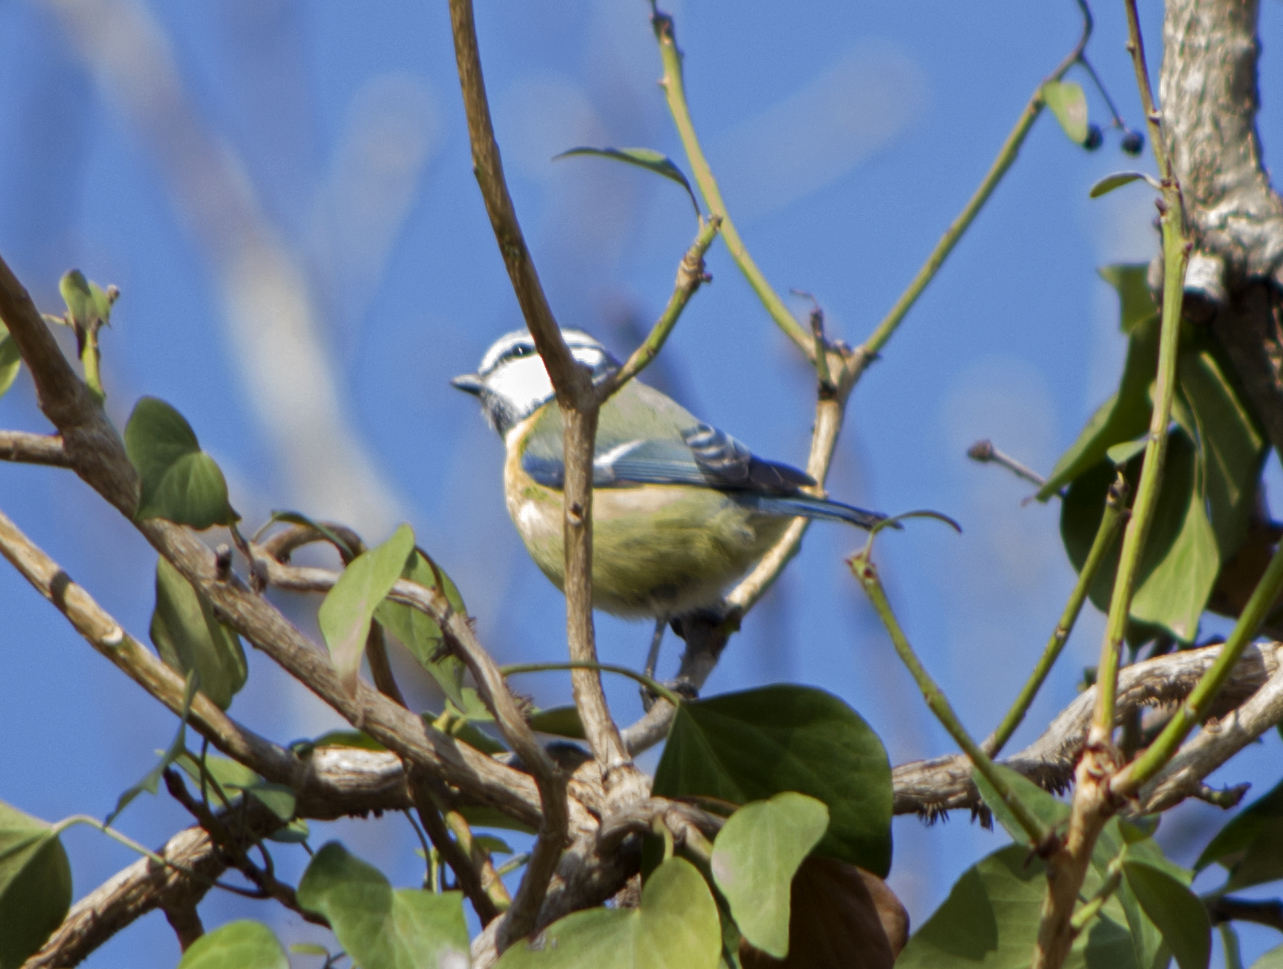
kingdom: Animalia
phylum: Chordata
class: Aves
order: Passeriformes
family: Paridae
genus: Cyanistes
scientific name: Cyanistes caeruleus
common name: Eurasian blue tit
